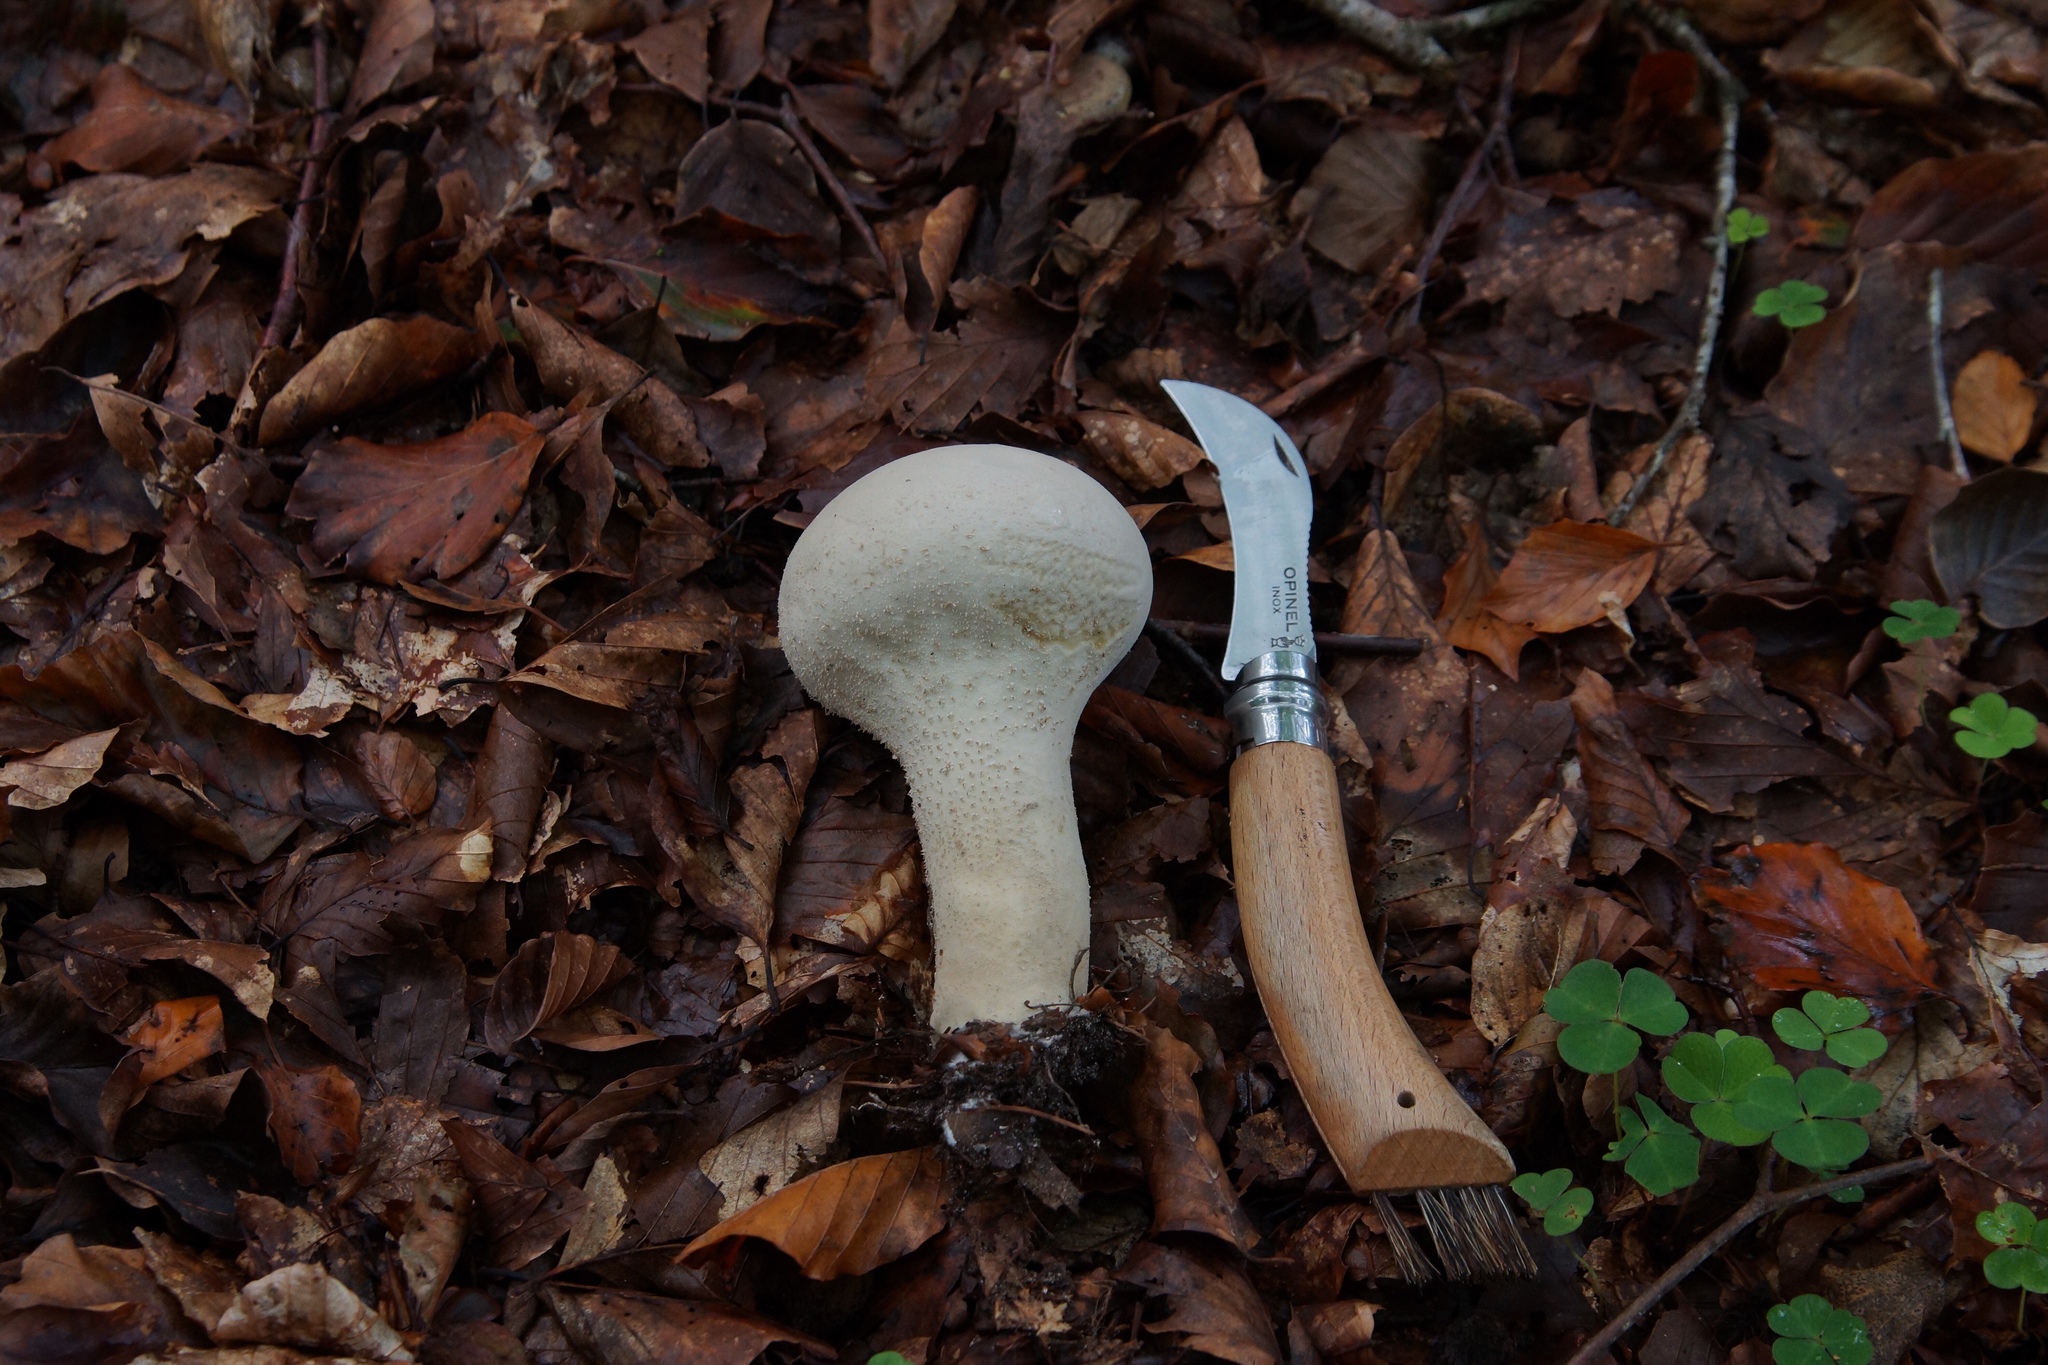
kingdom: Fungi
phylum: Basidiomycota
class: Agaricomycetes
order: Agaricales
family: Lycoperdaceae
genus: Lycoperdon
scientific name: Lycoperdon excipuliforme
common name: Pestle puffball
